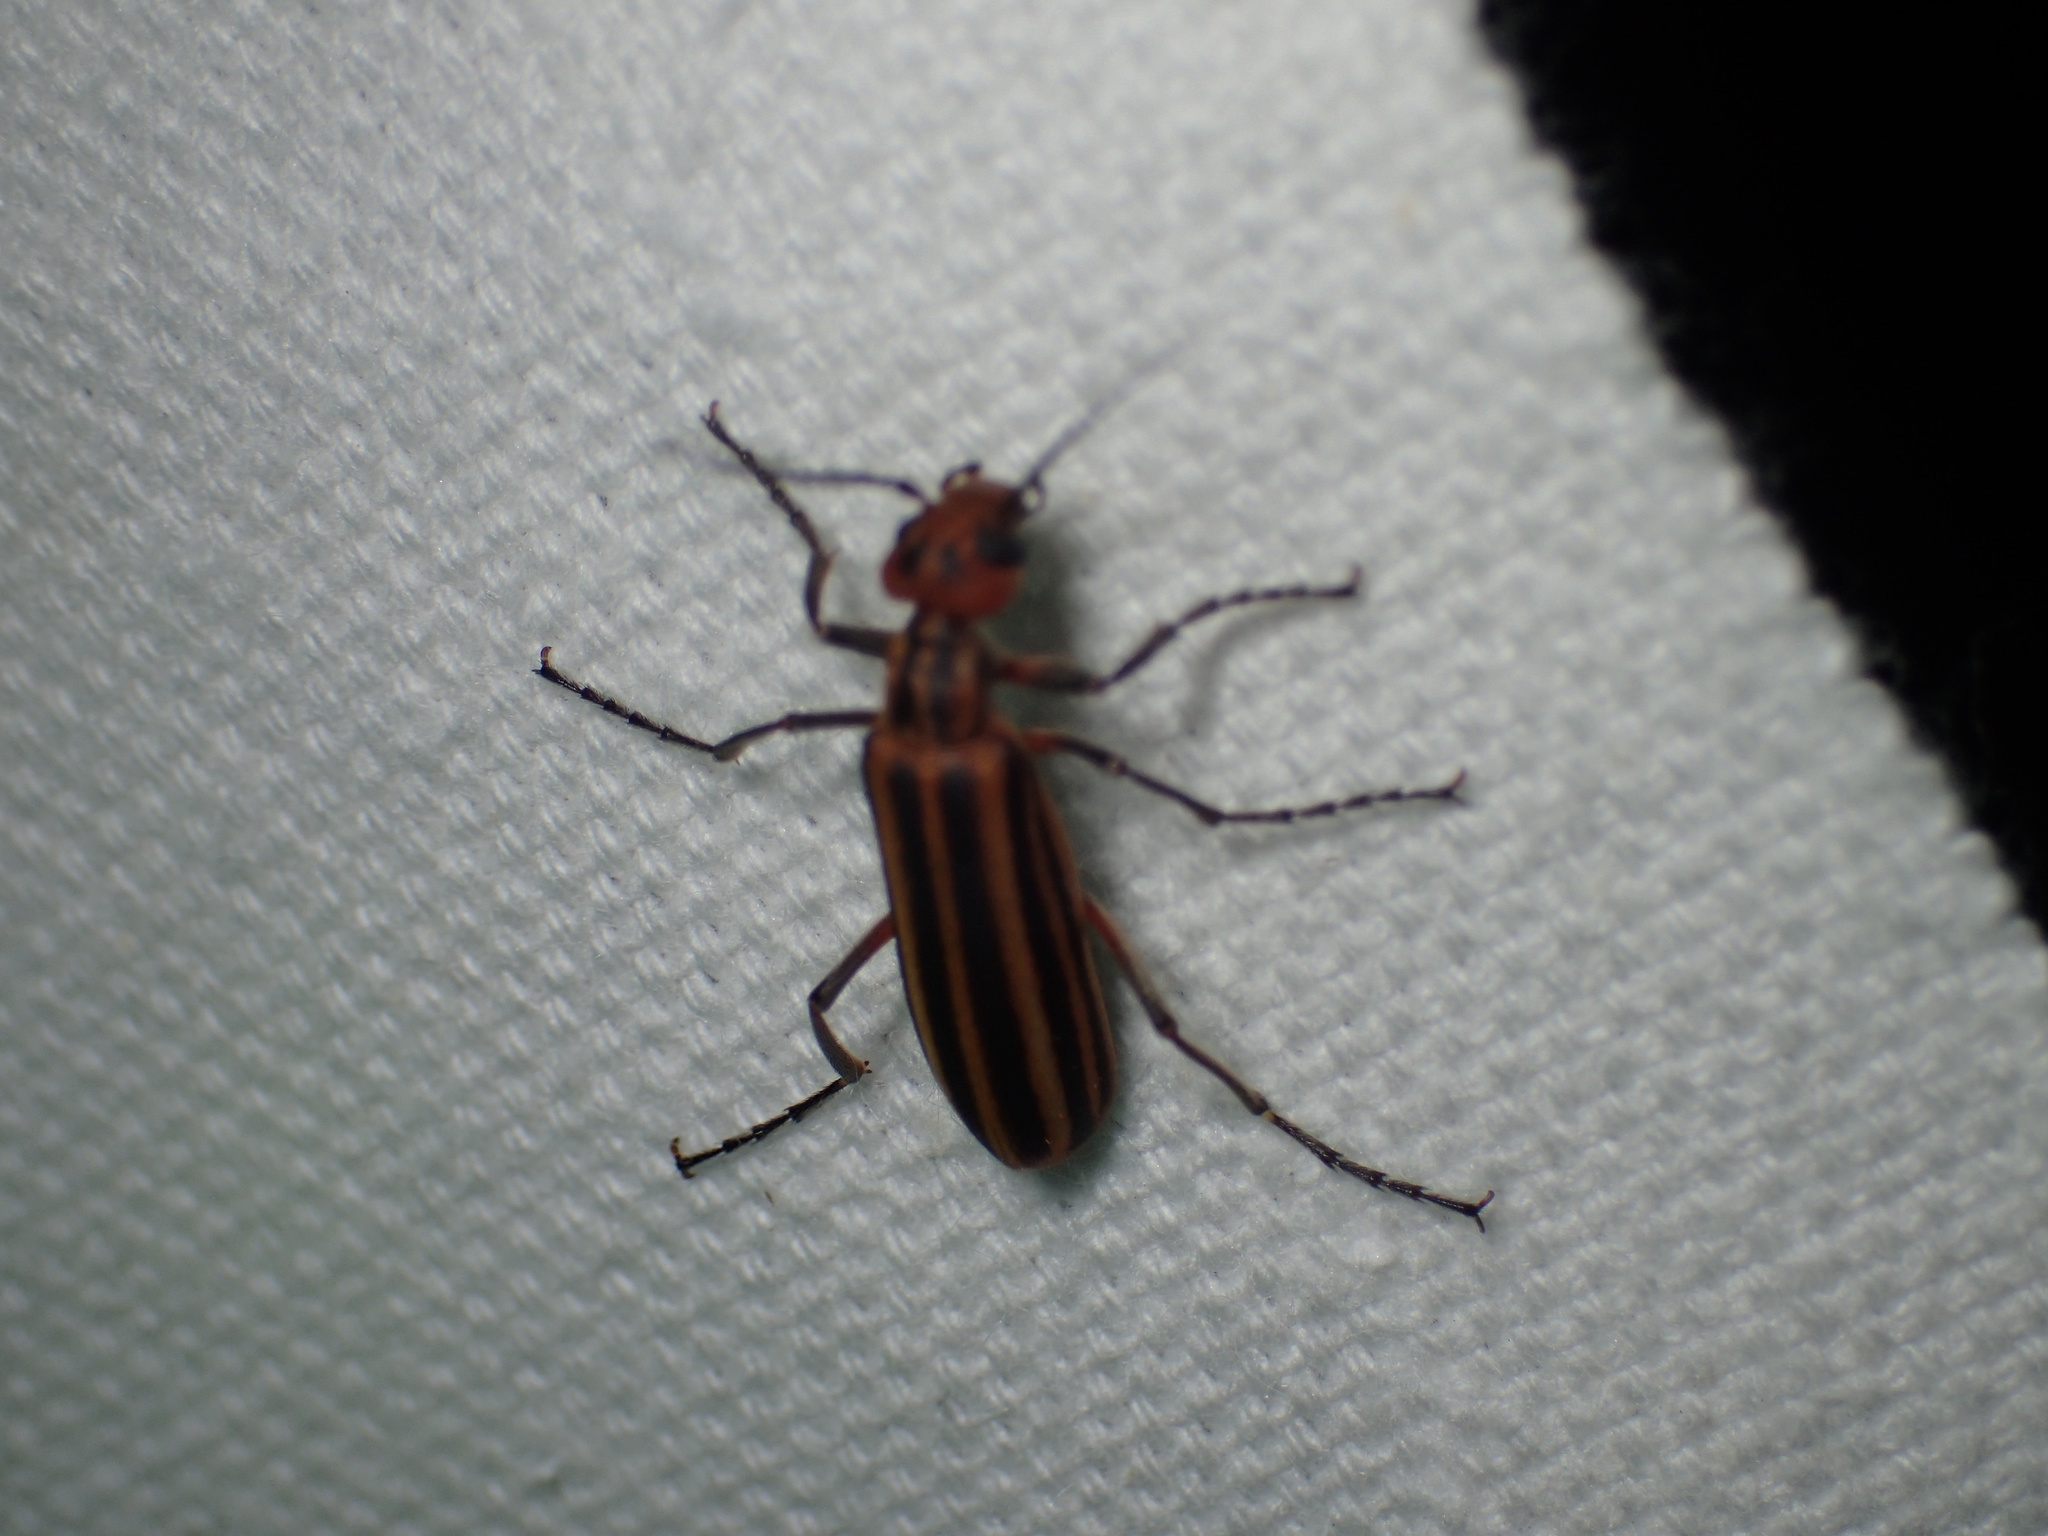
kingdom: Animalia
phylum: Arthropoda
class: Insecta
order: Coleoptera
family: Meloidae
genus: Epicauta
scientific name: Epicauta vittata
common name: Old-fashioned potato beetle
